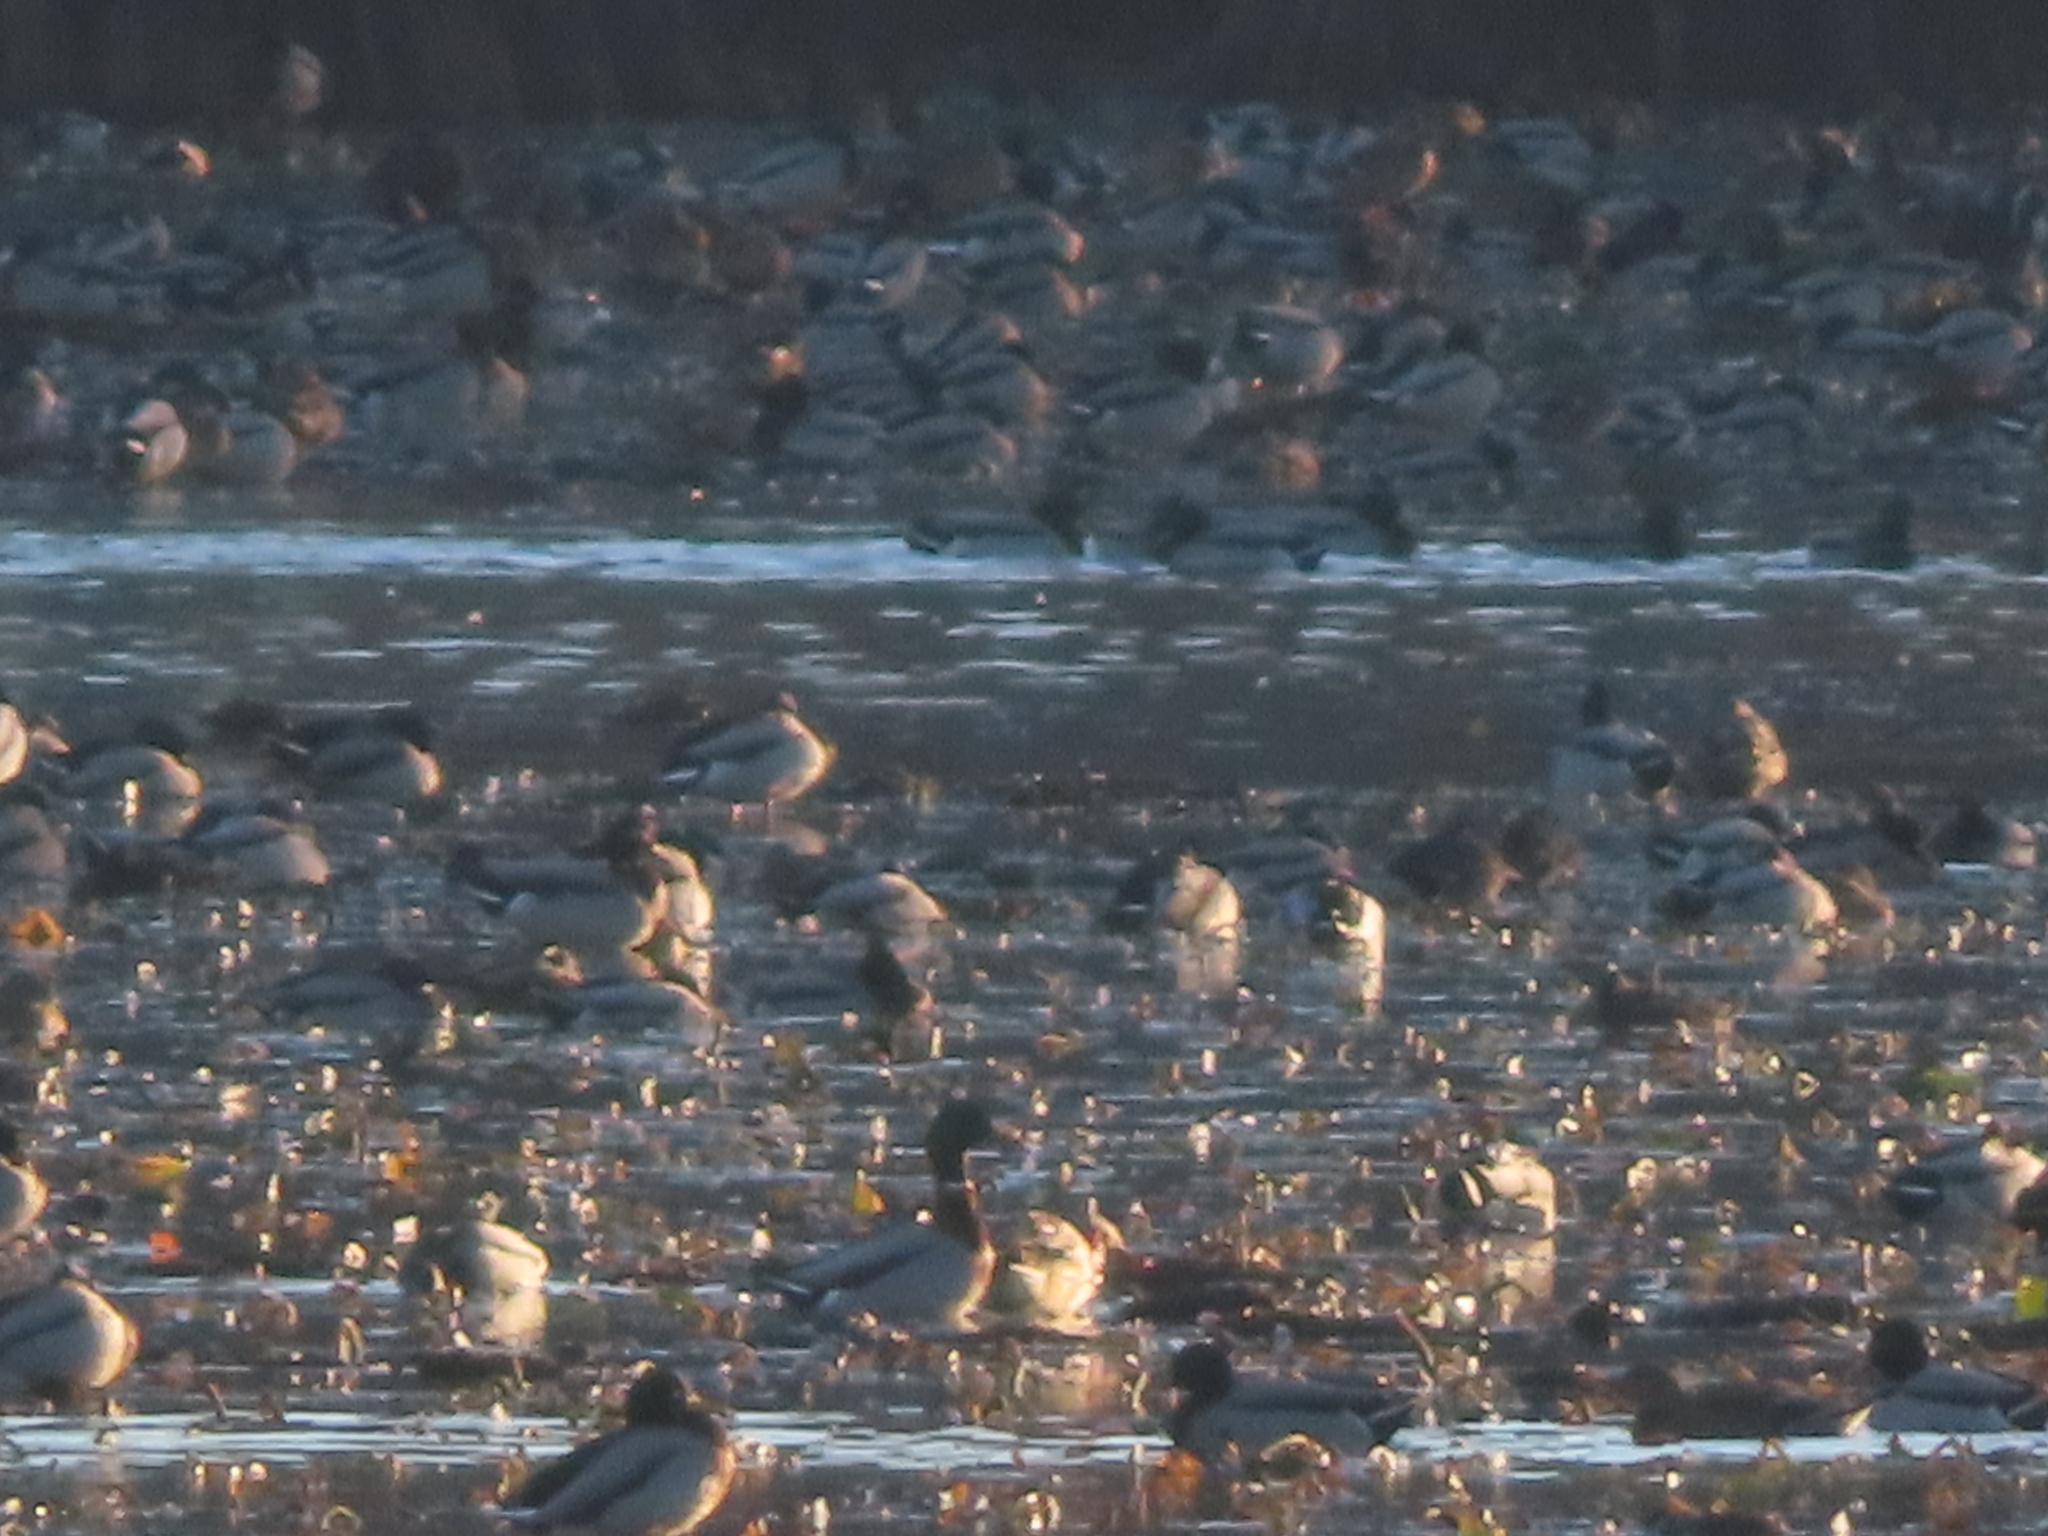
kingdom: Animalia
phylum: Chordata
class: Aves
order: Anseriformes
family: Anatidae
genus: Anas
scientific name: Anas platyrhynchos
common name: Mallard
